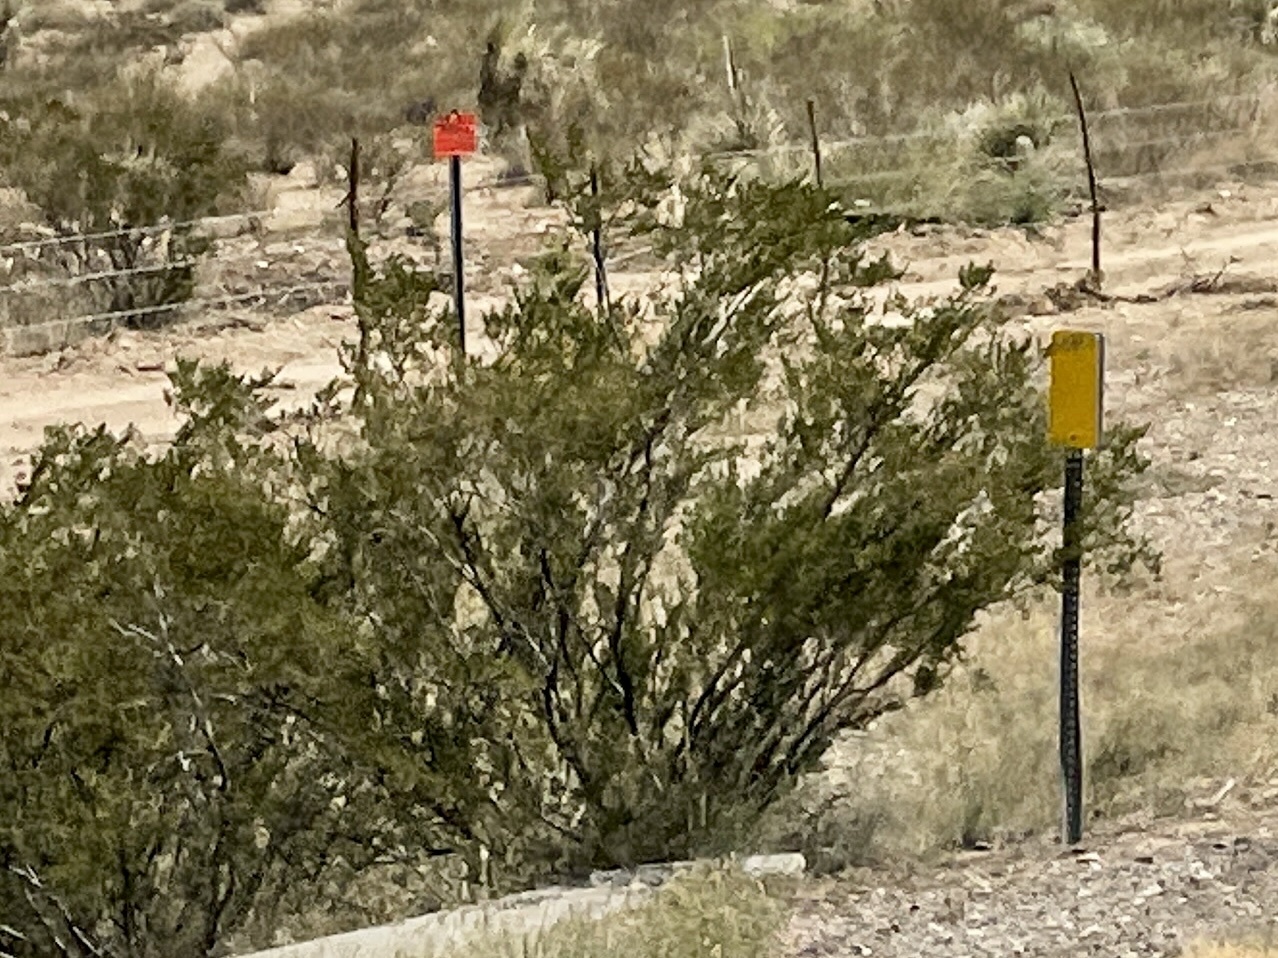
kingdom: Plantae
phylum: Tracheophyta
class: Magnoliopsida
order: Zygophyllales
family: Zygophyllaceae
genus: Larrea
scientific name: Larrea tridentata
